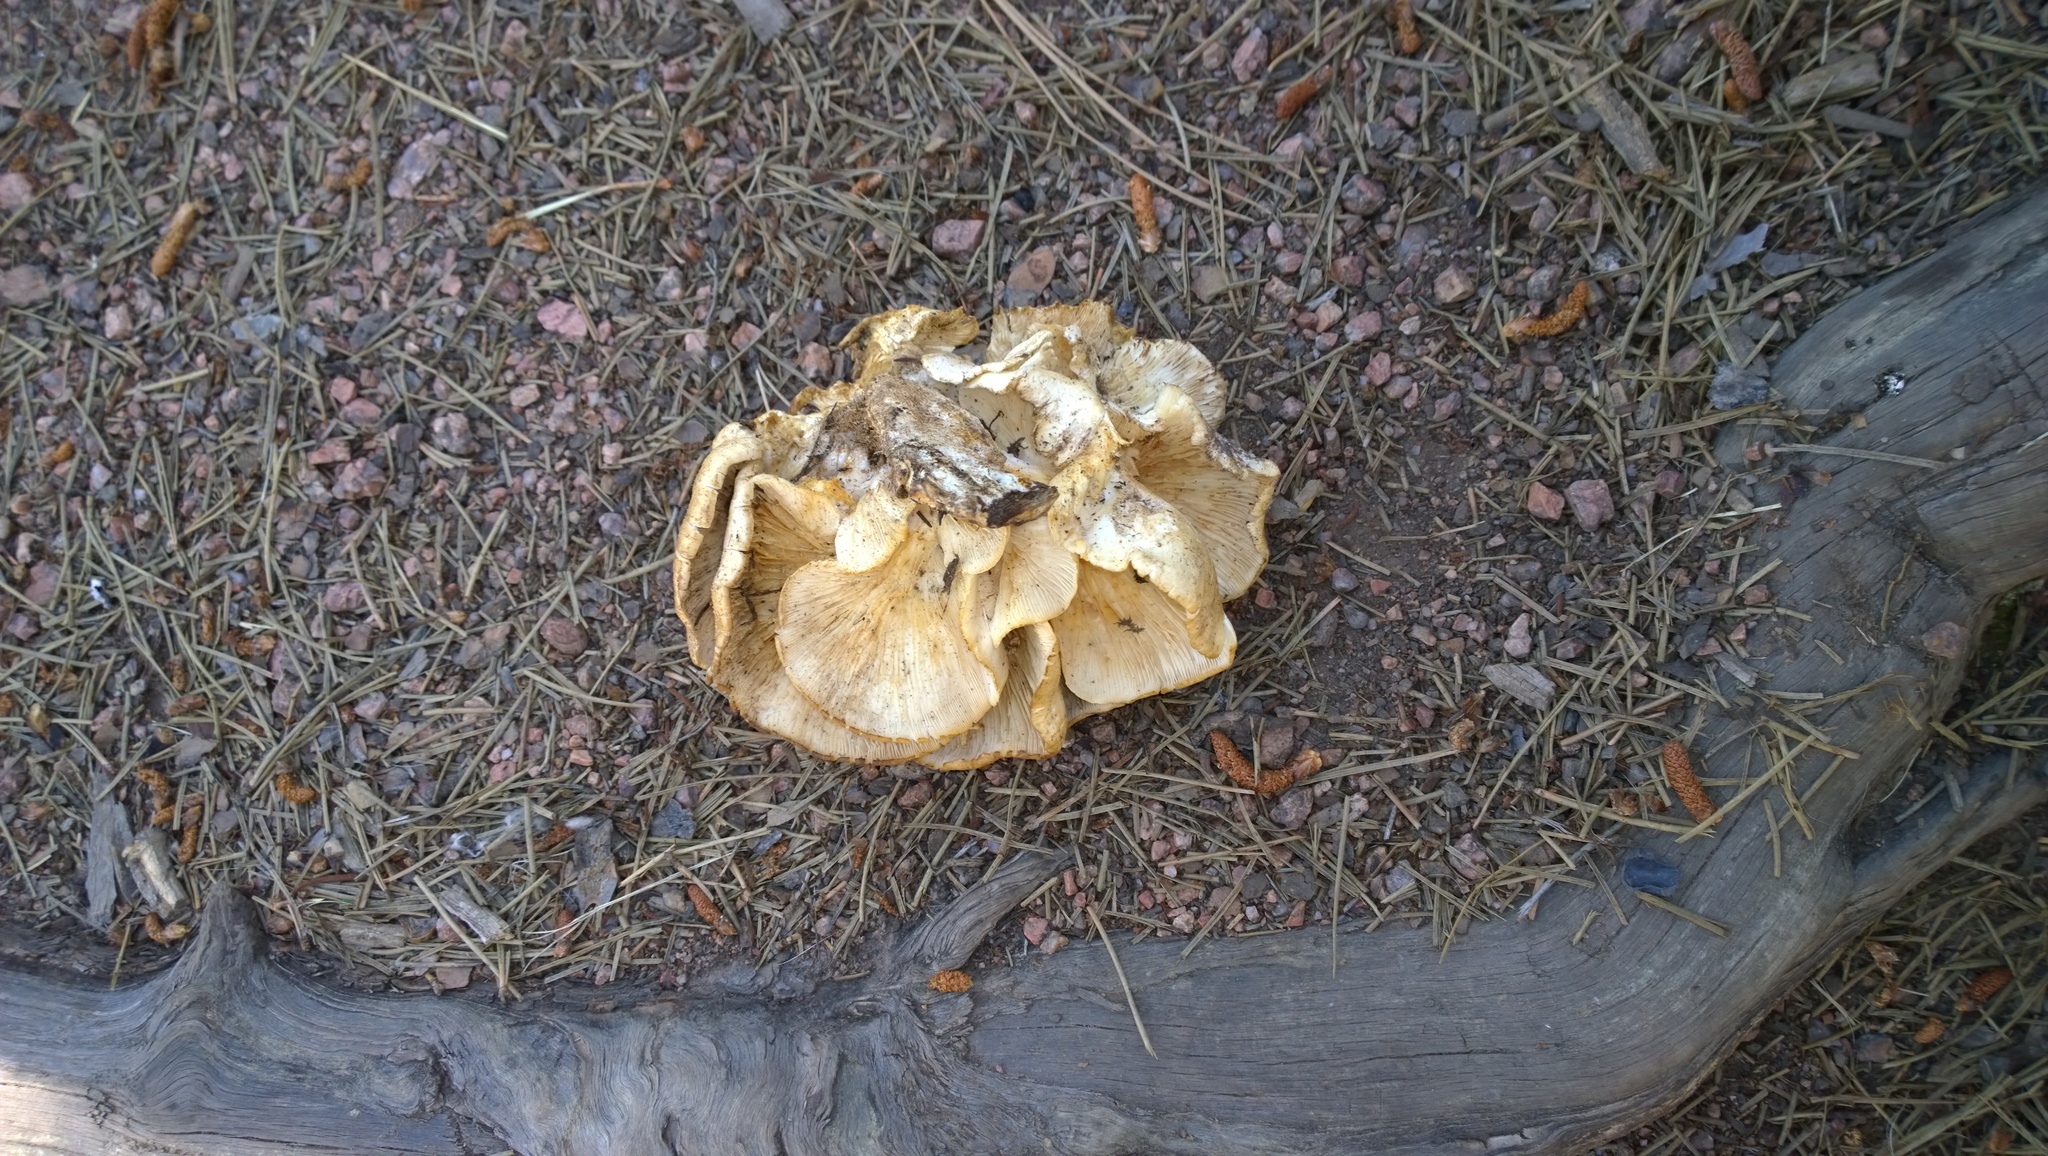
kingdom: Fungi
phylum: Basidiomycota
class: Agaricomycetes
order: Agaricales
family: Pleurotaceae
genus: Pleurotus
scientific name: Pleurotus populinus
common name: Aspen oyster mushroom
